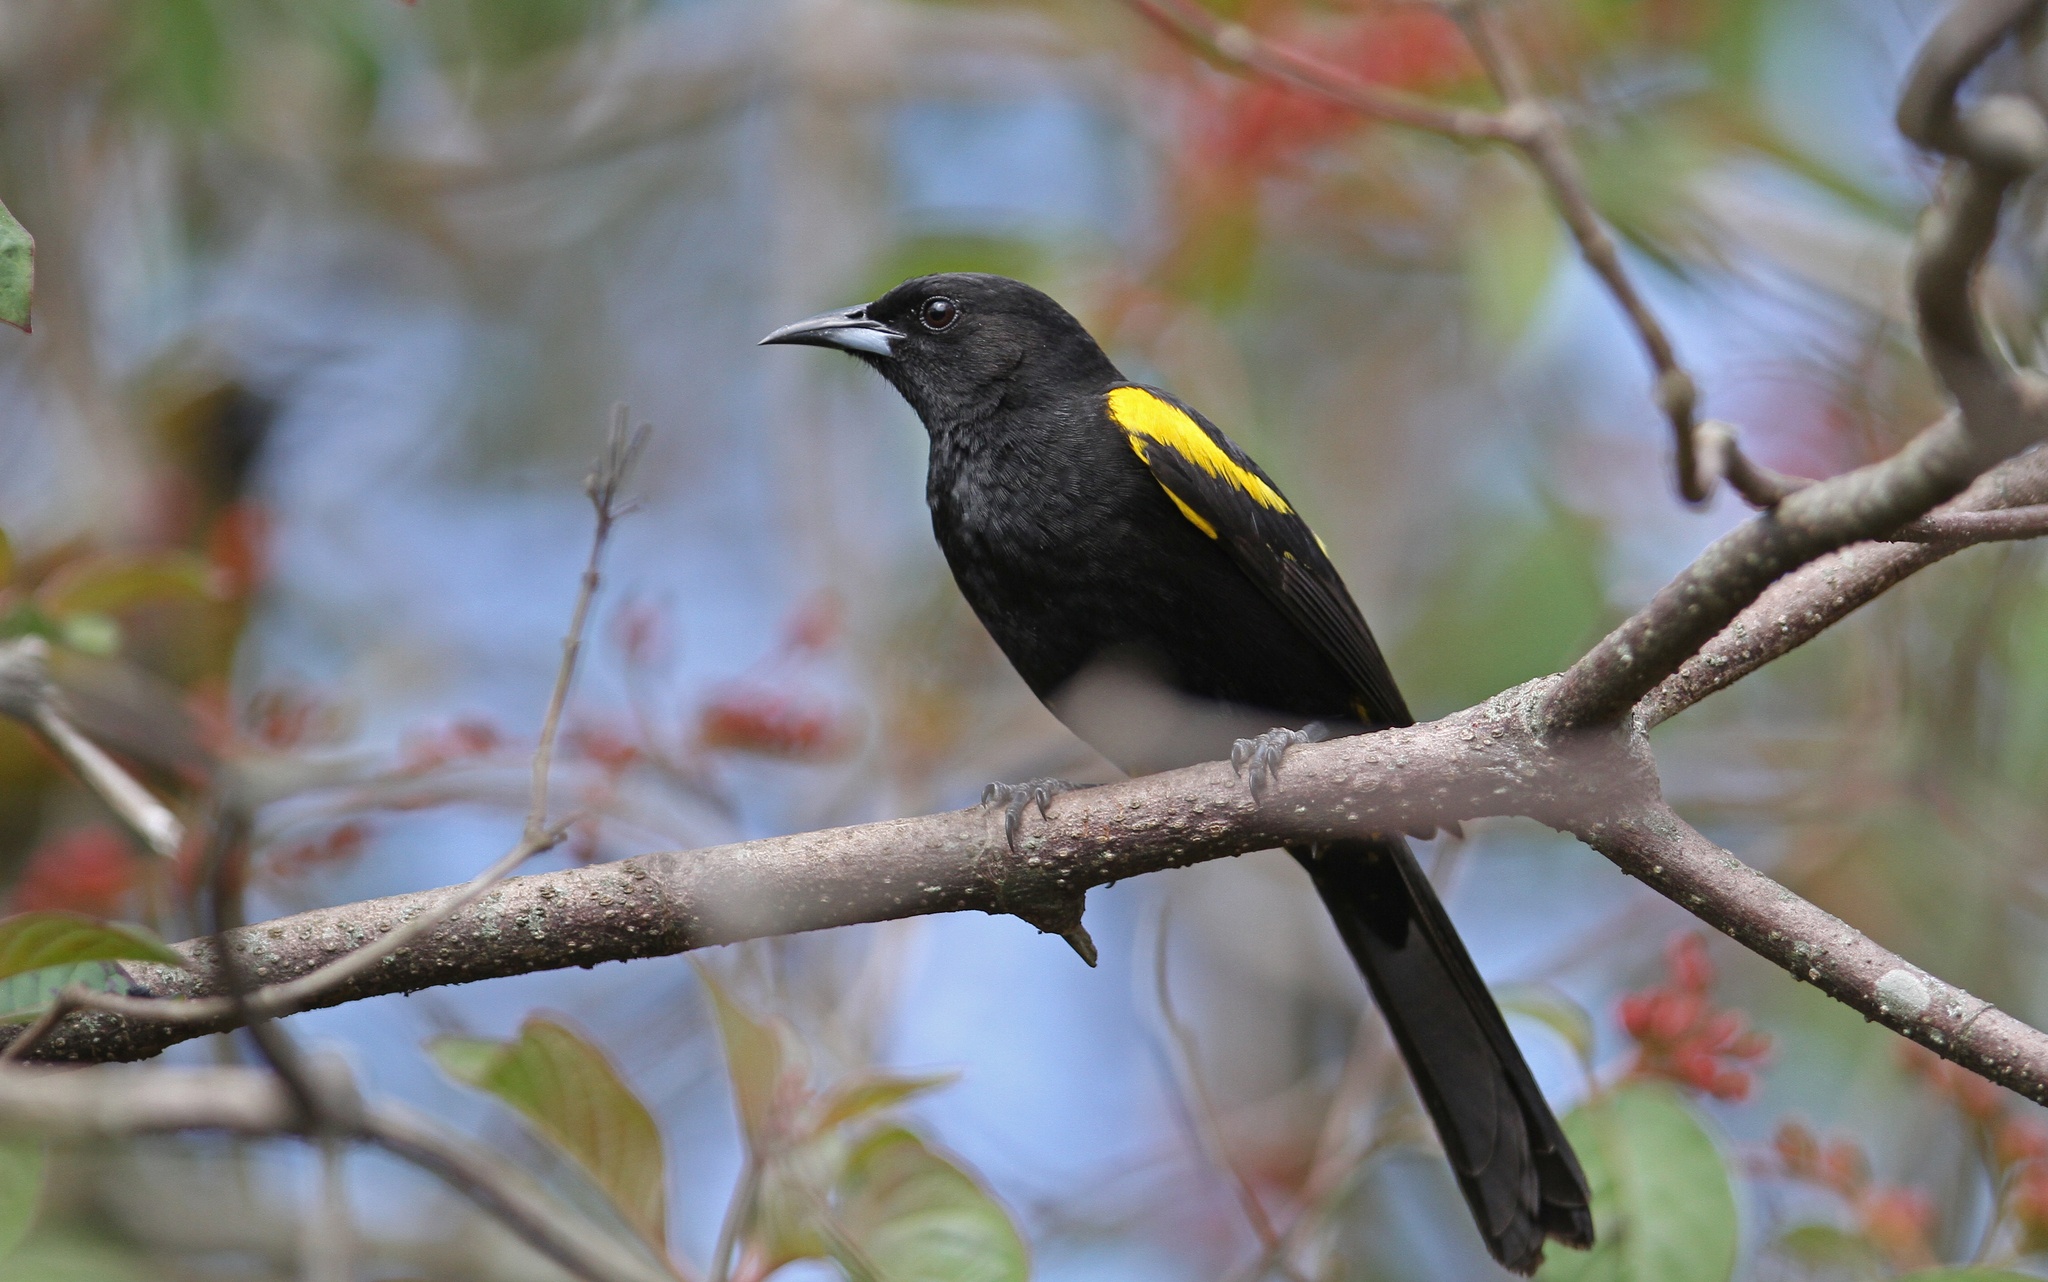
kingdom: Animalia
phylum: Chordata
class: Aves
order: Passeriformes
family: Icteridae
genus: Icterus
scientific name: Icterus dominicensis
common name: Hispaniolan oriole
